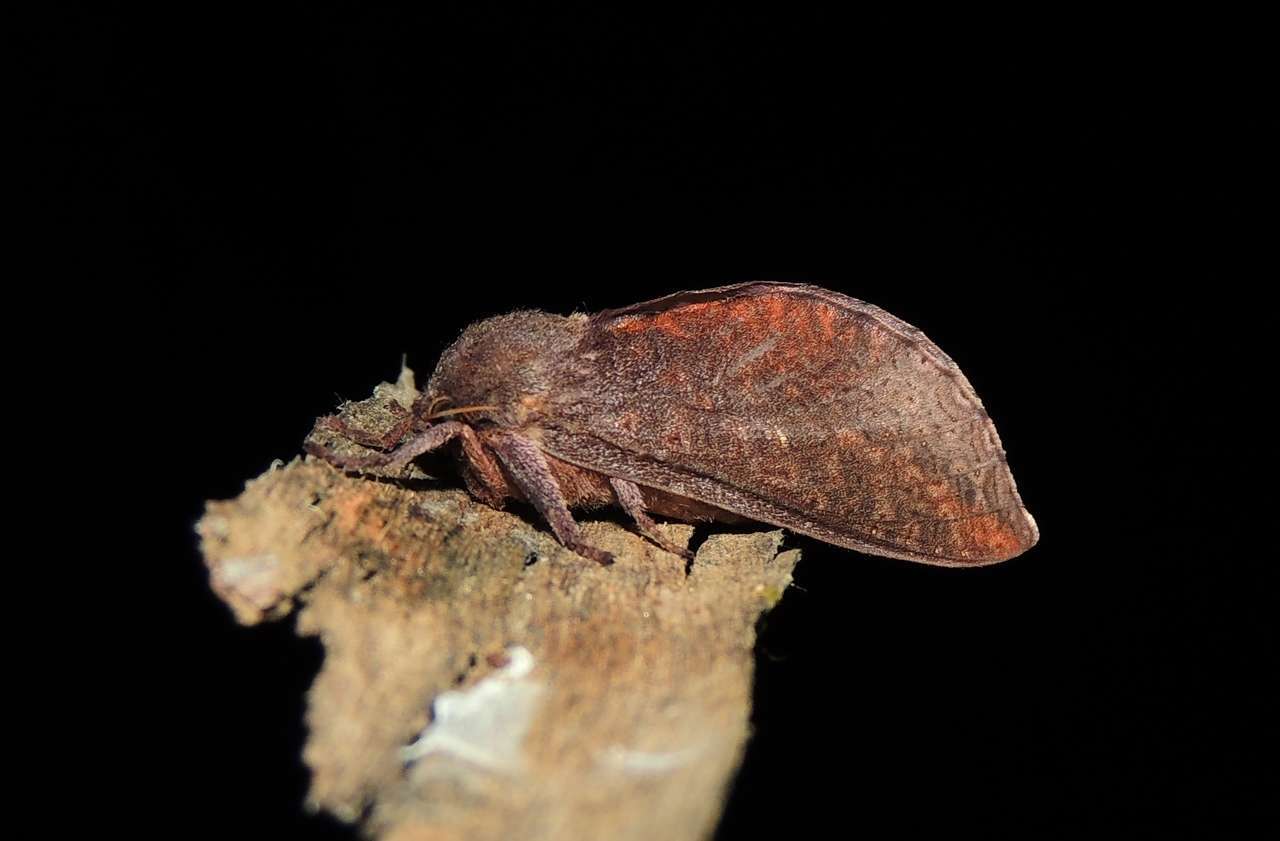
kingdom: Animalia
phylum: Arthropoda
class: Insecta
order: Lepidoptera
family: Hepialidae
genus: Elhamma
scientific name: Elhamma australasiae
